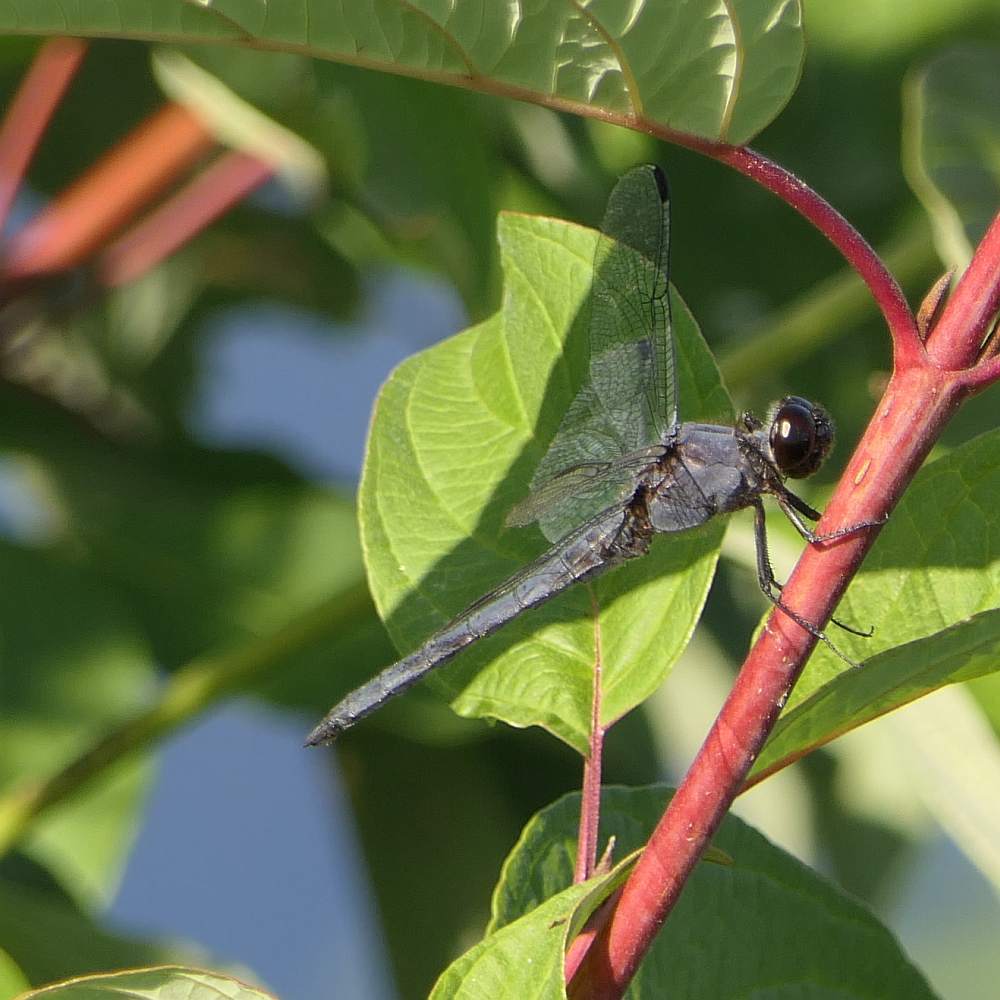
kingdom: Animalia
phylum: Arthropoda
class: Insecta
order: Odonata
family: Libellulidae
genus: Libellula
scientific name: Libellula incesta
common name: Slaty skimmer
